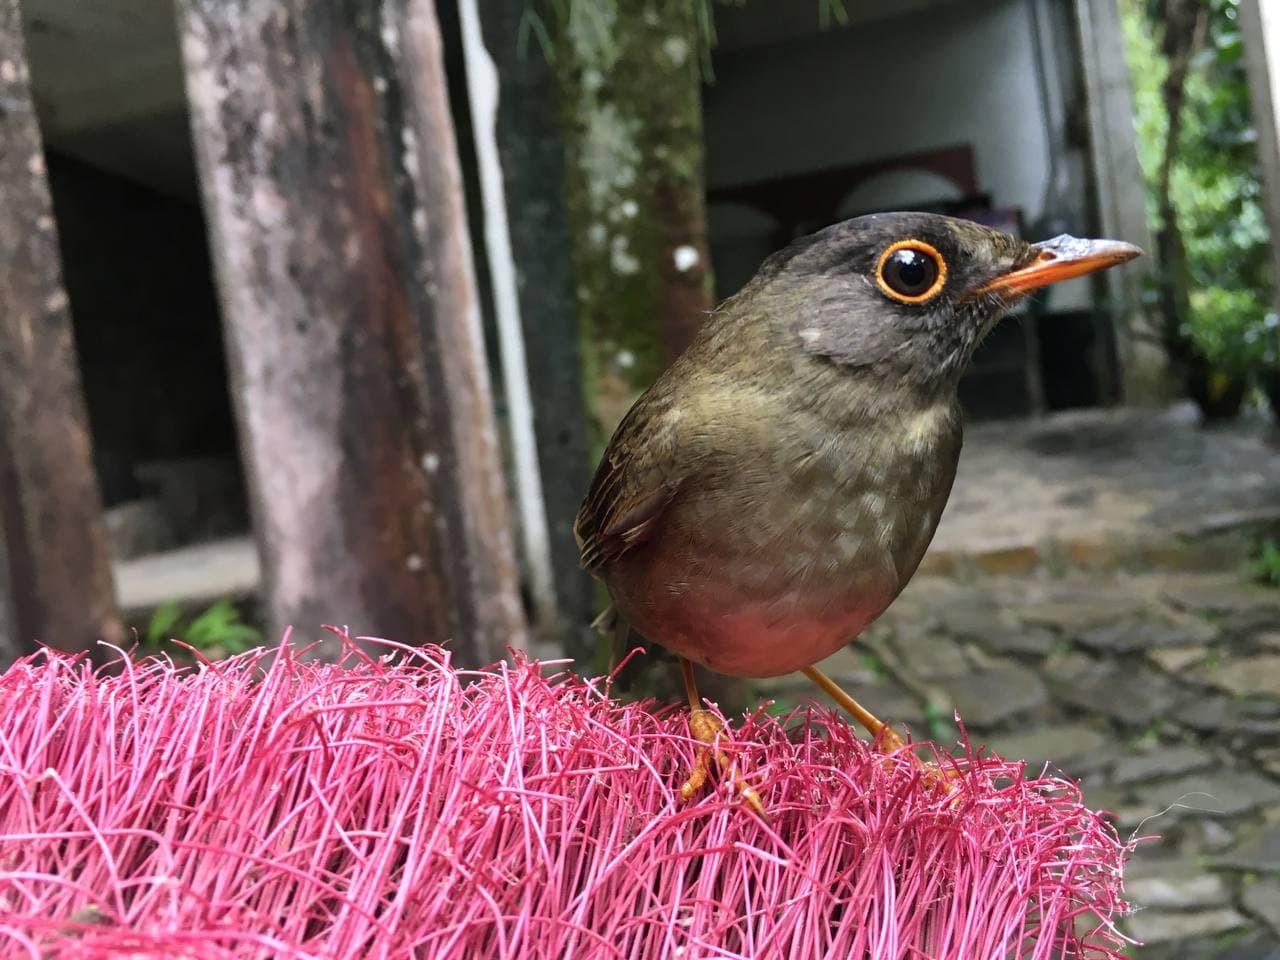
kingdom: Animalia
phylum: Chordata
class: Aves
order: Passeriformes
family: Turdidae
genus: Catharus
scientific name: Catharus aurantiirostris
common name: Orange-billed nightingale-thrush
